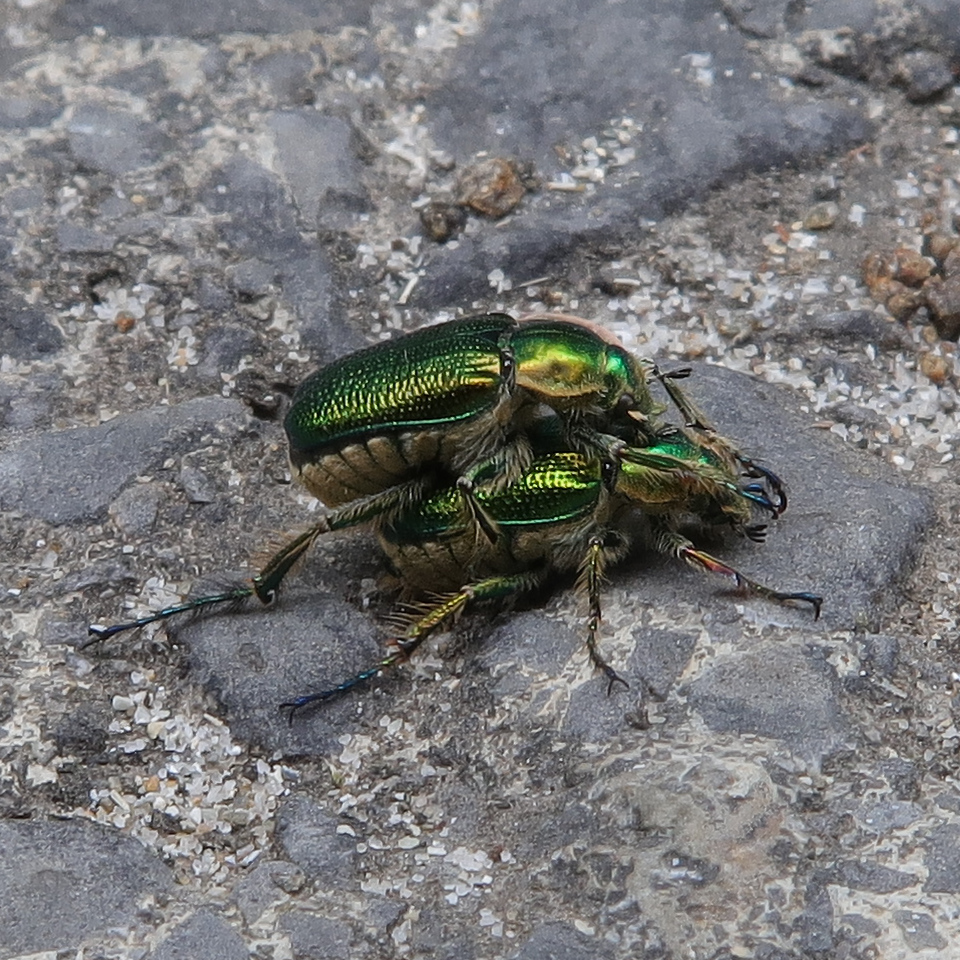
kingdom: Animalia
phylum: Arthropoda
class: Insecta
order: Coleoptera
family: Scarabaeidae
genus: Diphucephala
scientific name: Diphucephala colaspidoides
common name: Green scarab beetle
